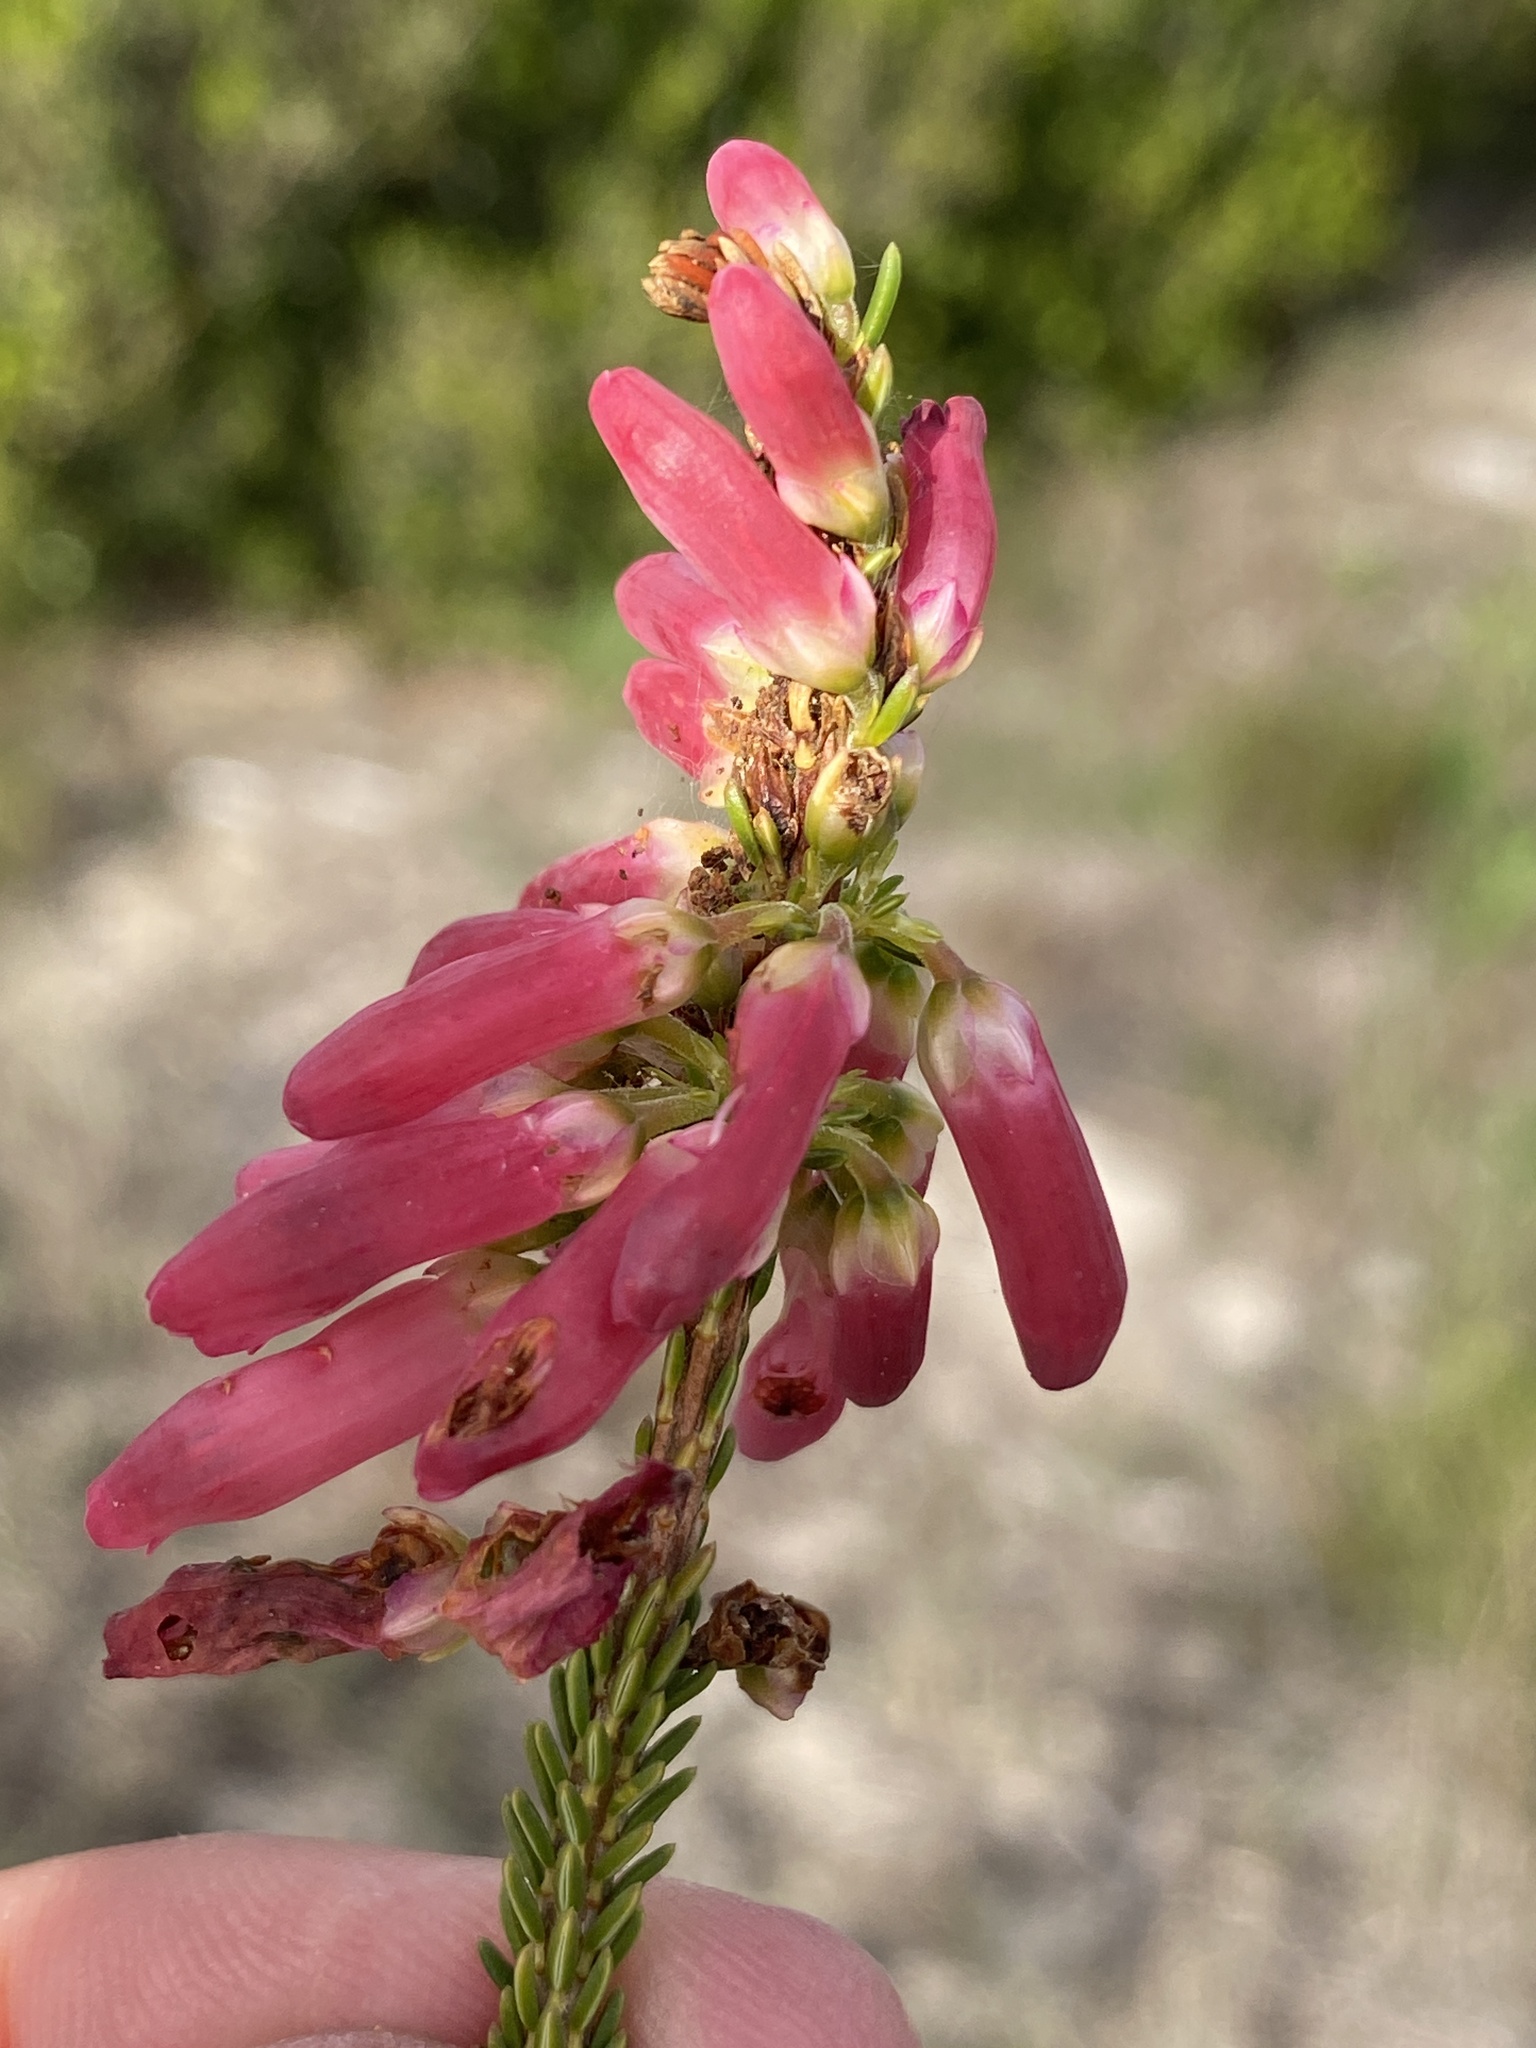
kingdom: Plantae
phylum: Tracheophyta
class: Magnoliopsida
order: Ericales
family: Ericaceae
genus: Erica
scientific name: Erica mammosa
